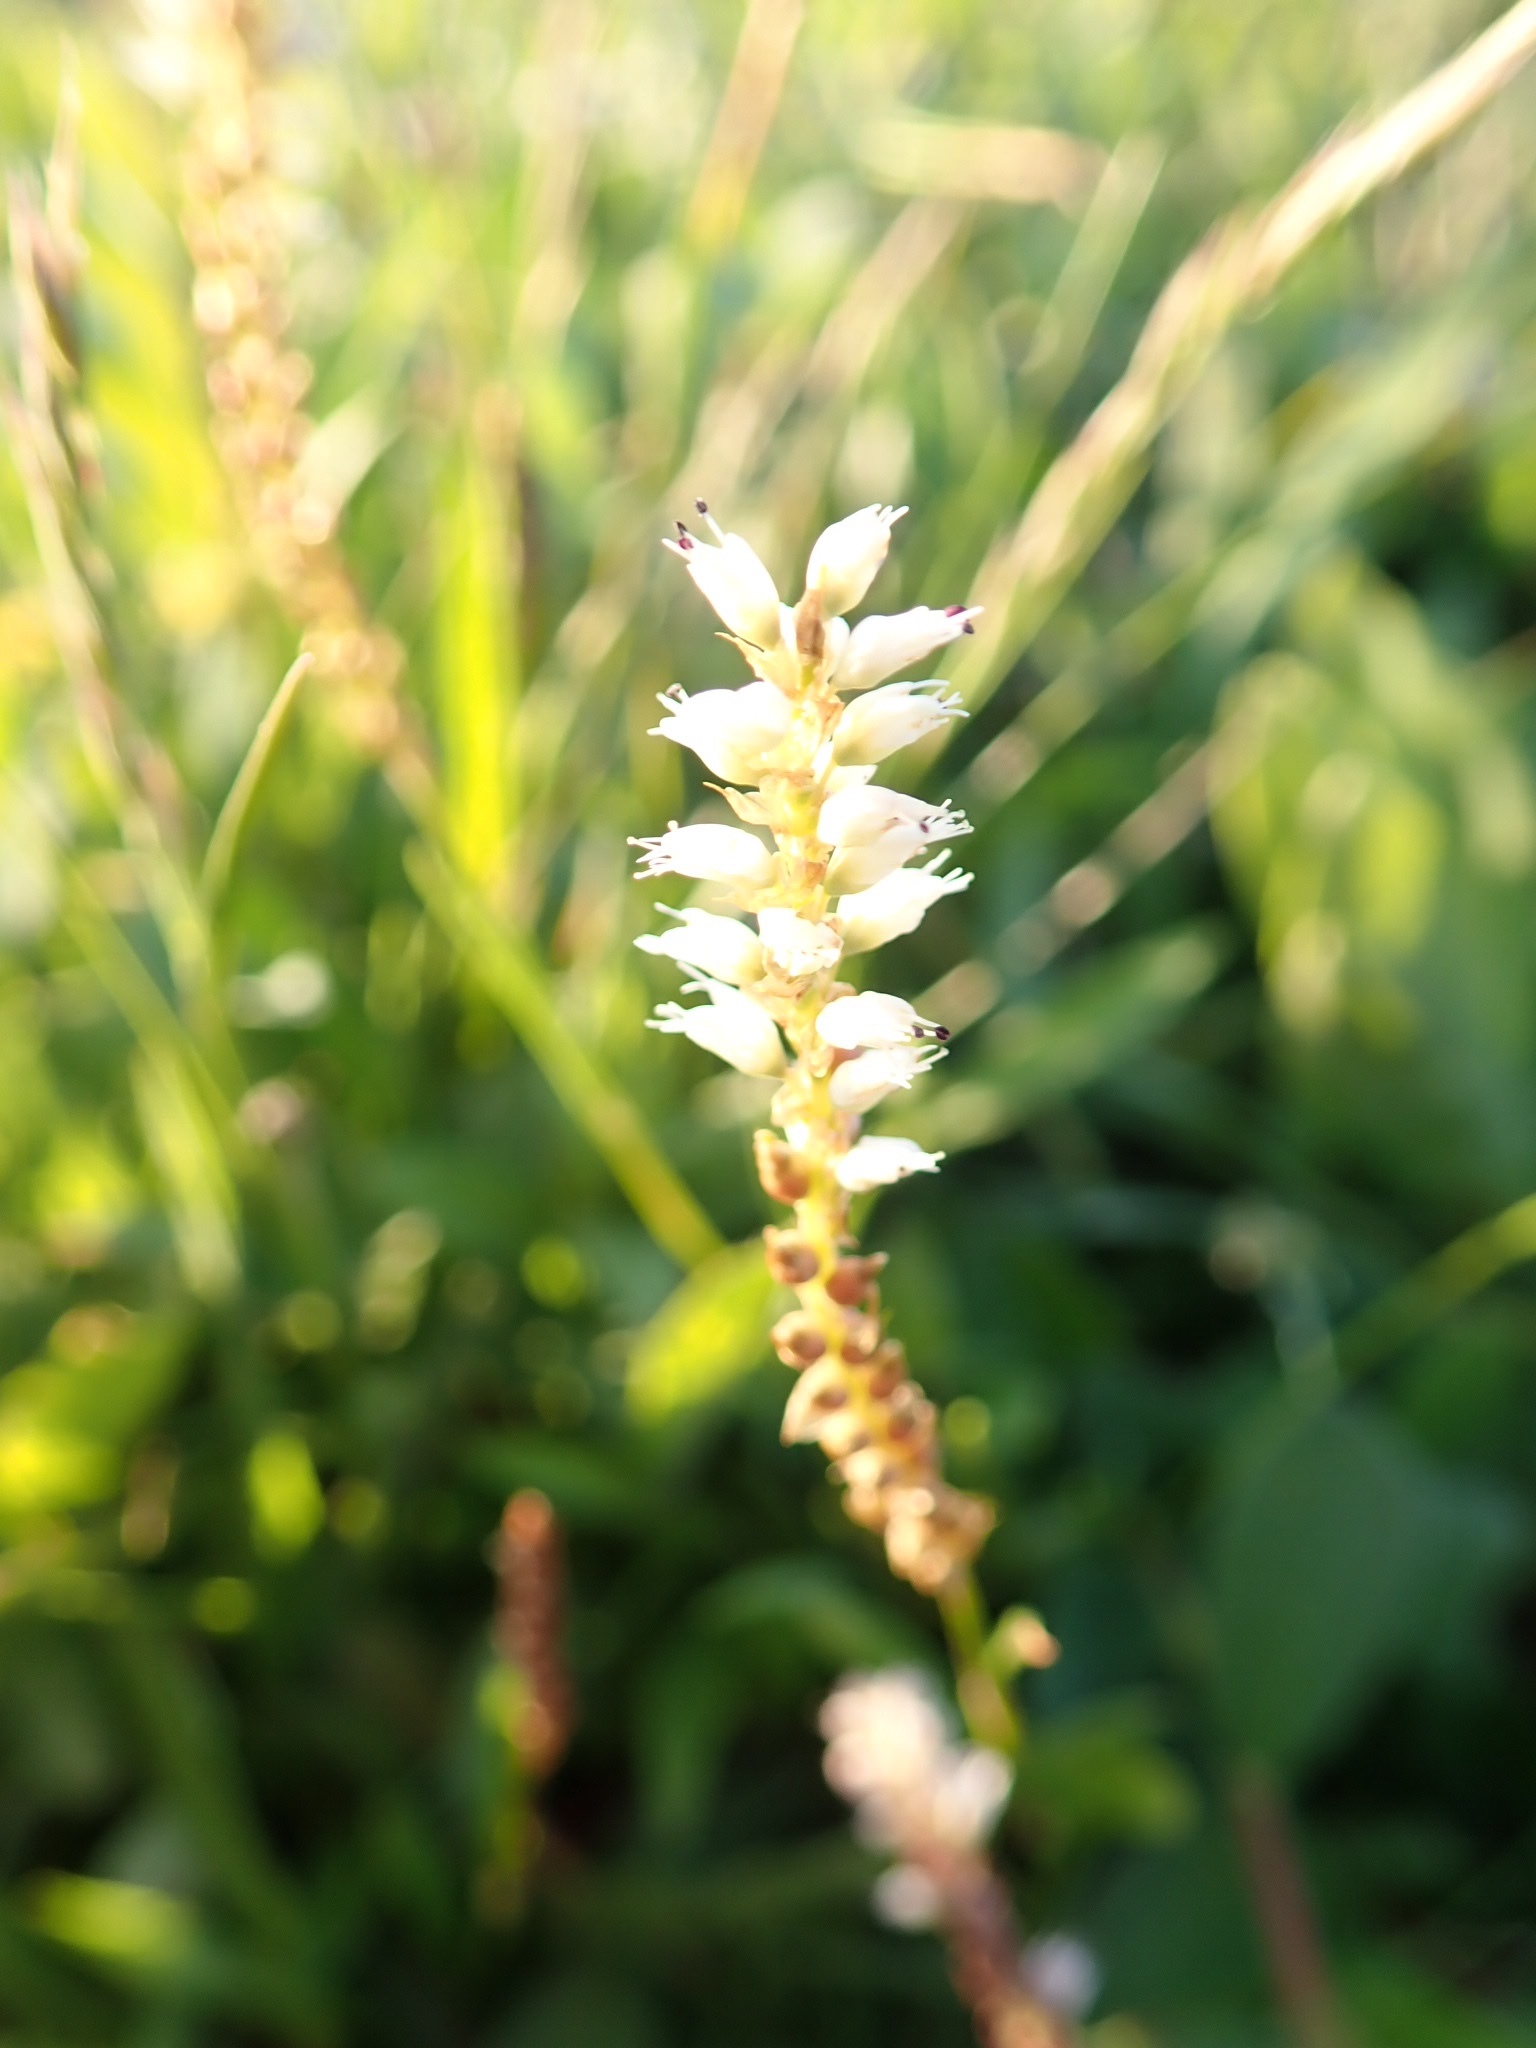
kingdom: Plantae
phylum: Tracheophyta
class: Magnoliopsida
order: Caryophyllales
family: Polygonaceae
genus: Bistorta
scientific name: Bistorta vivipara
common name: Alpine bistort
